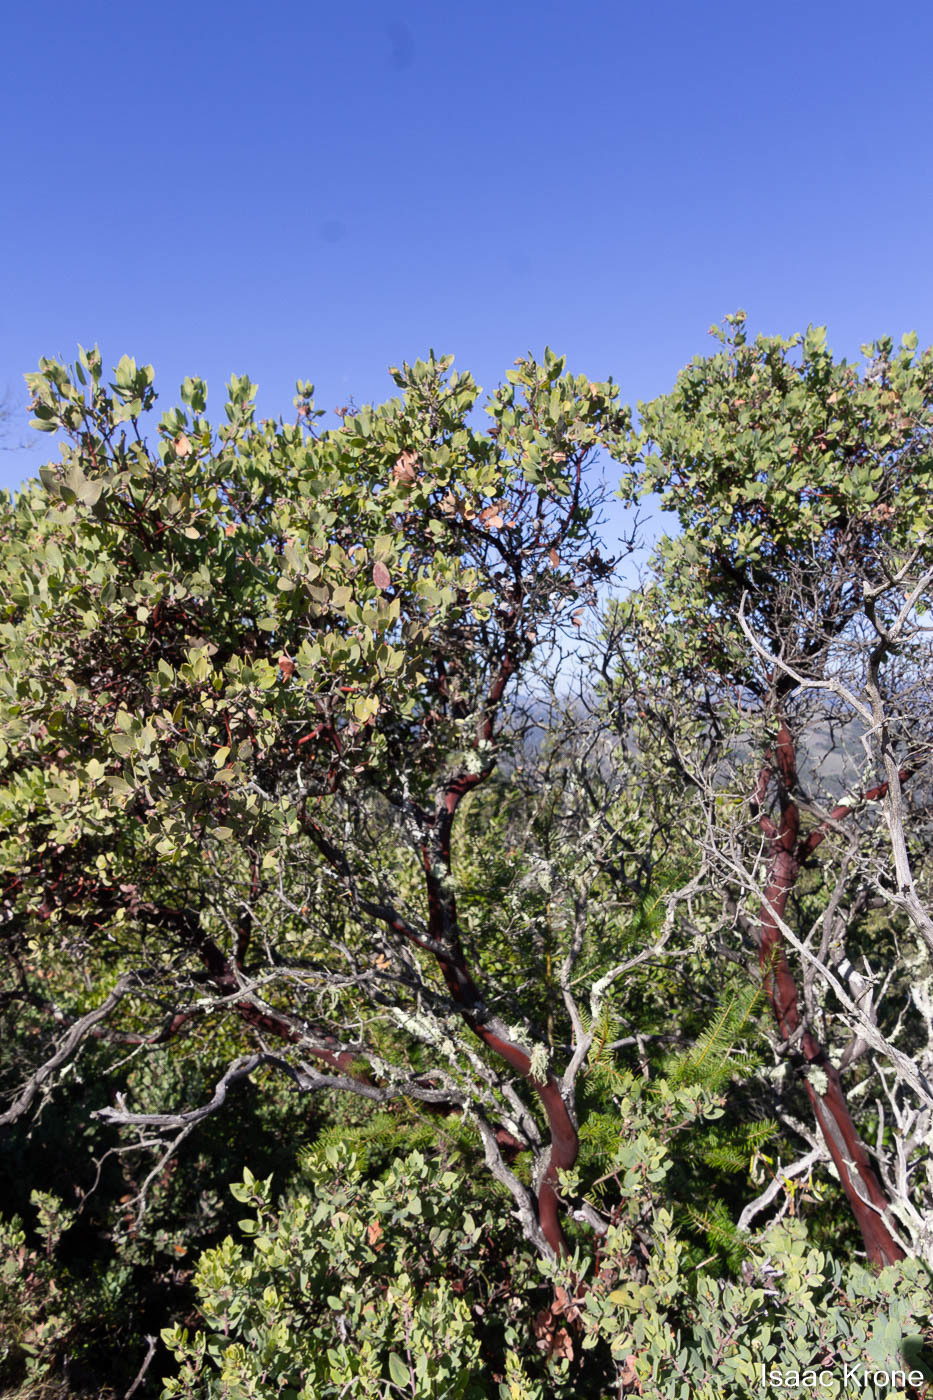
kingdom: Plantae
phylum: Tracheophyta
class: Magnoliopsida
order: Ericales
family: Ericaceae
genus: Arctostaphylos
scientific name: Arctostaphylos glandulosa
